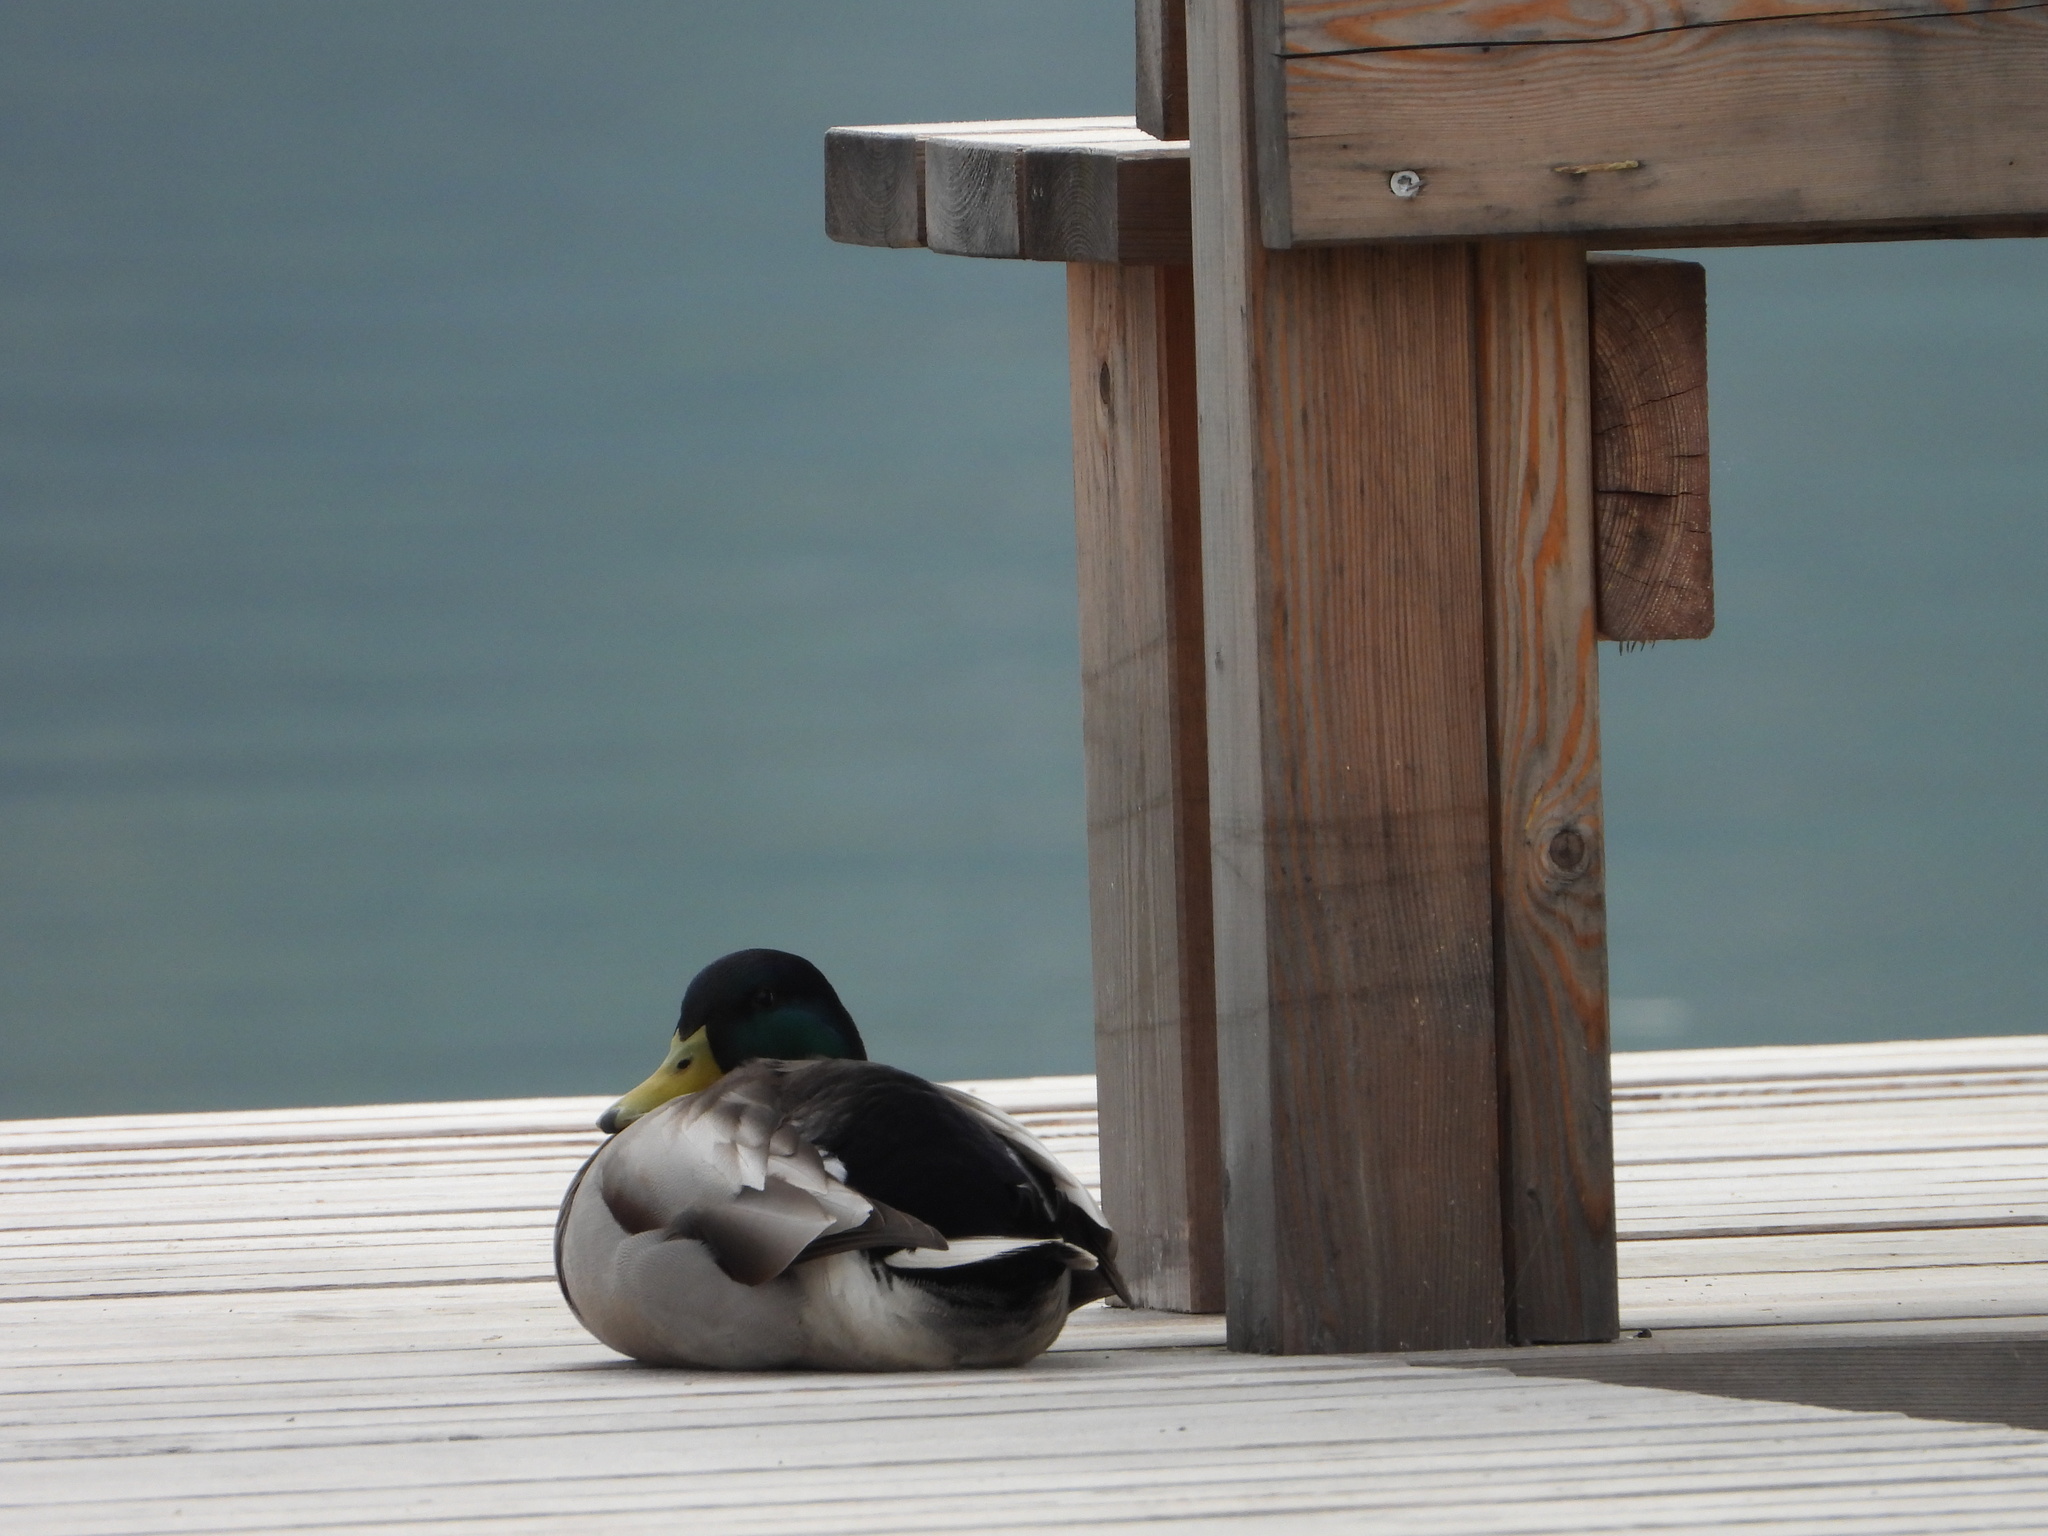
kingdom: Animalia
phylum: Chordata
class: Aves
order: Anseriformes
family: Anatidae
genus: Anas
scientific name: Anas platyrhynchos
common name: Mallard
